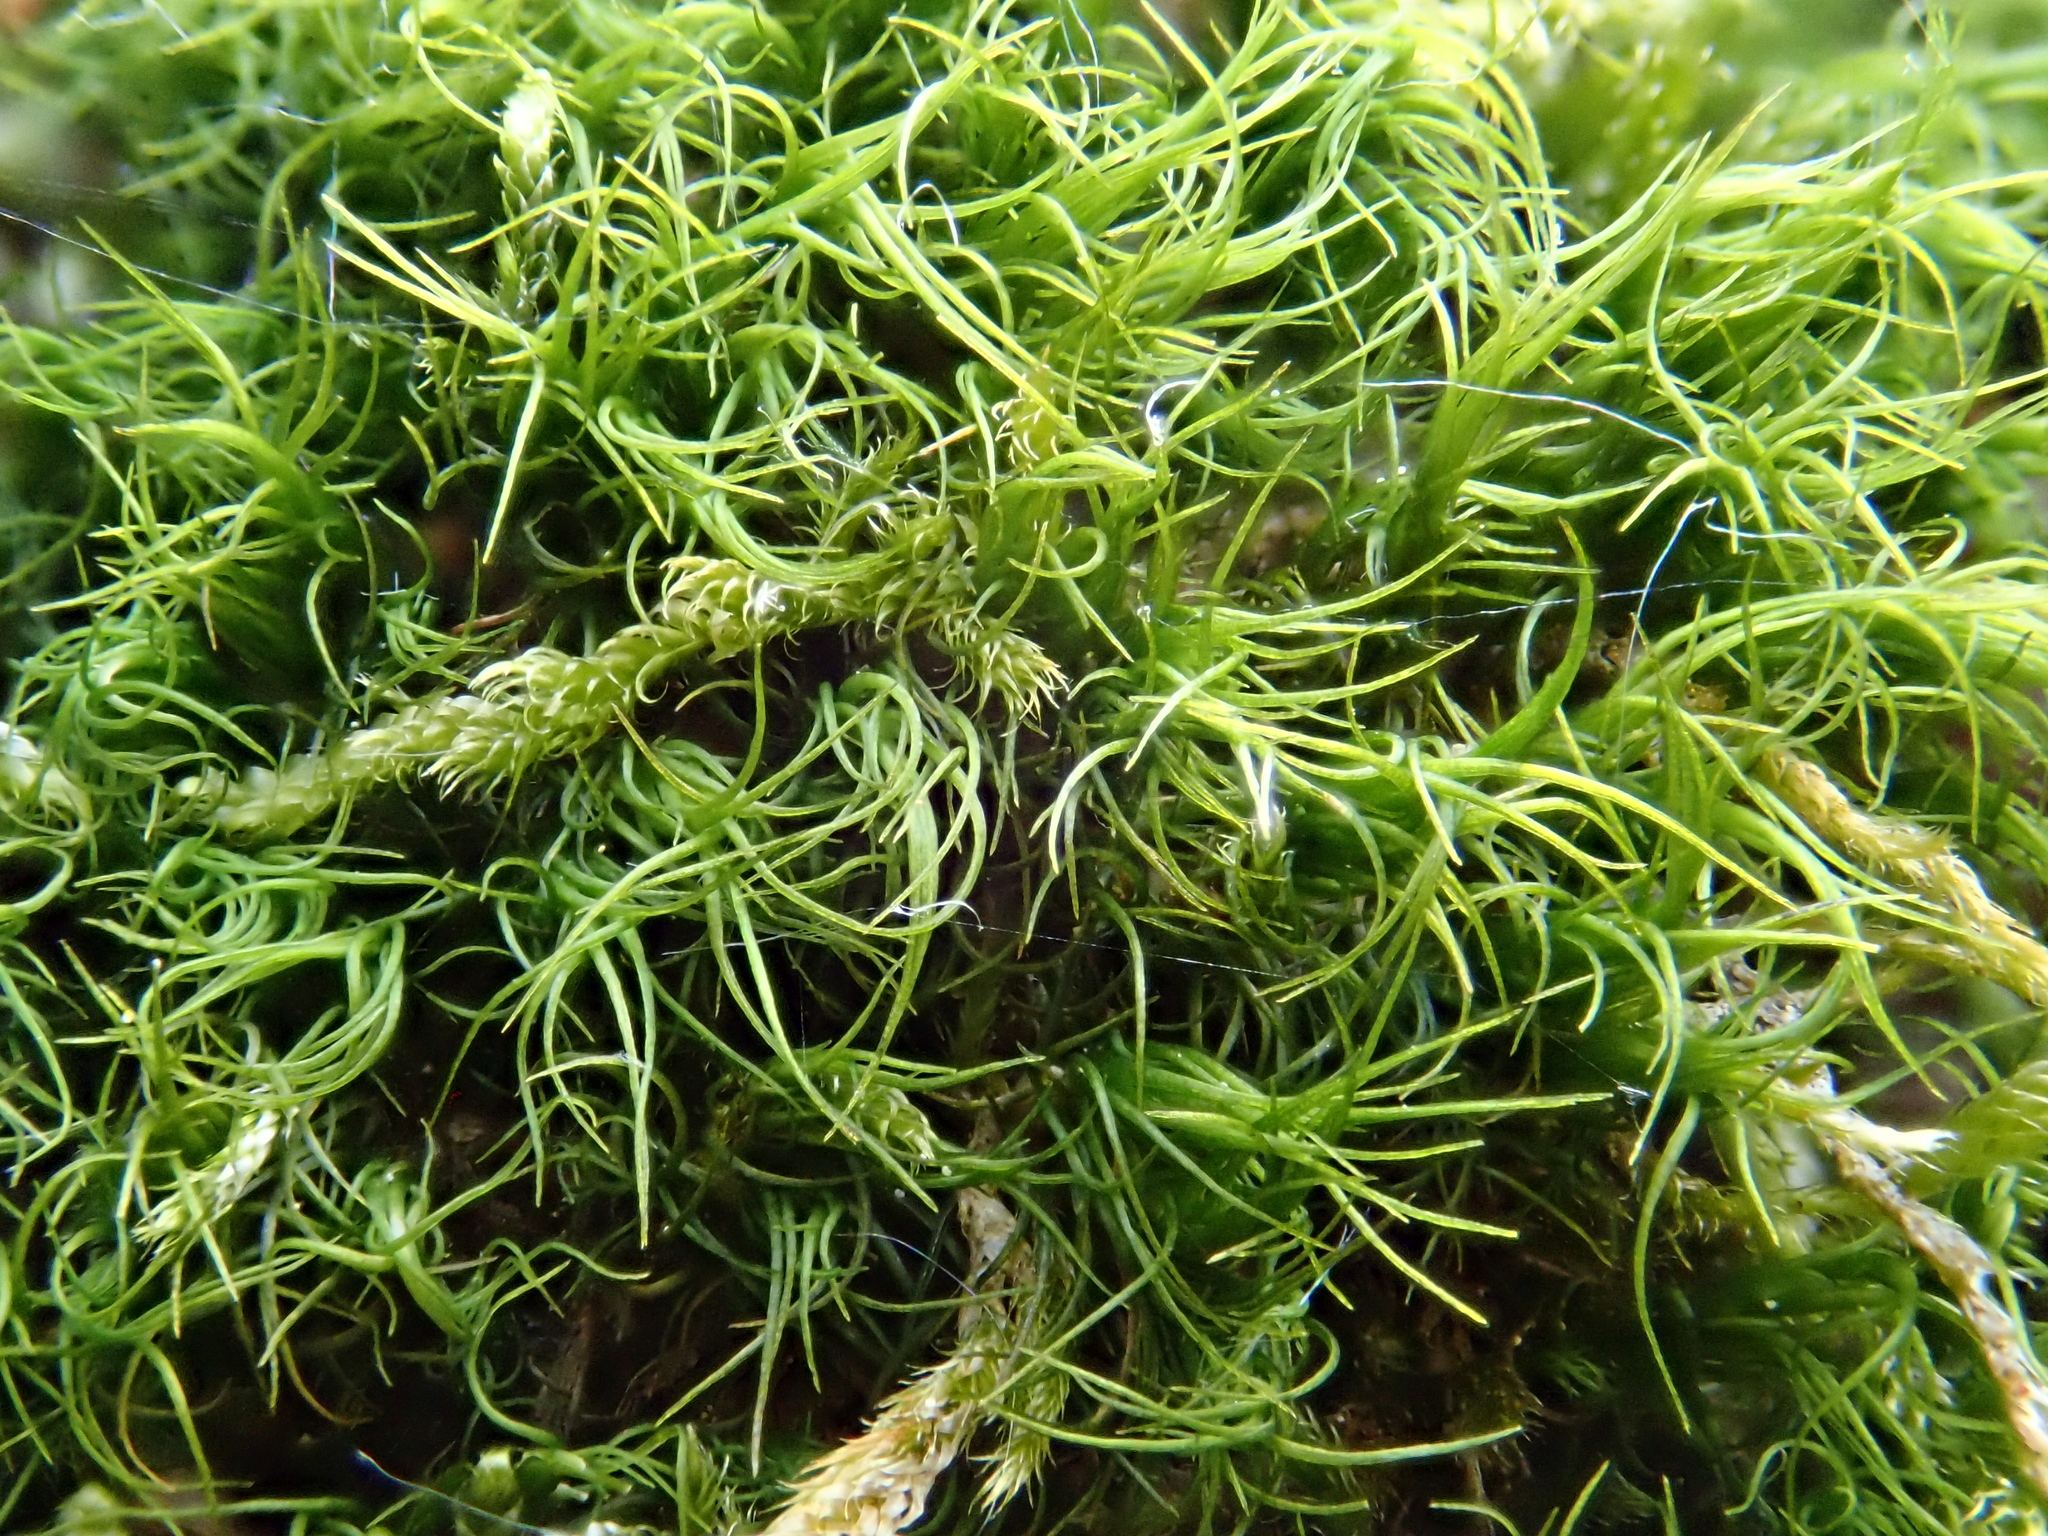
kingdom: Plantae
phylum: Bryophyta
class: Bryopsida
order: Dicranales
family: Dicranaceae
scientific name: Dicranaceae
